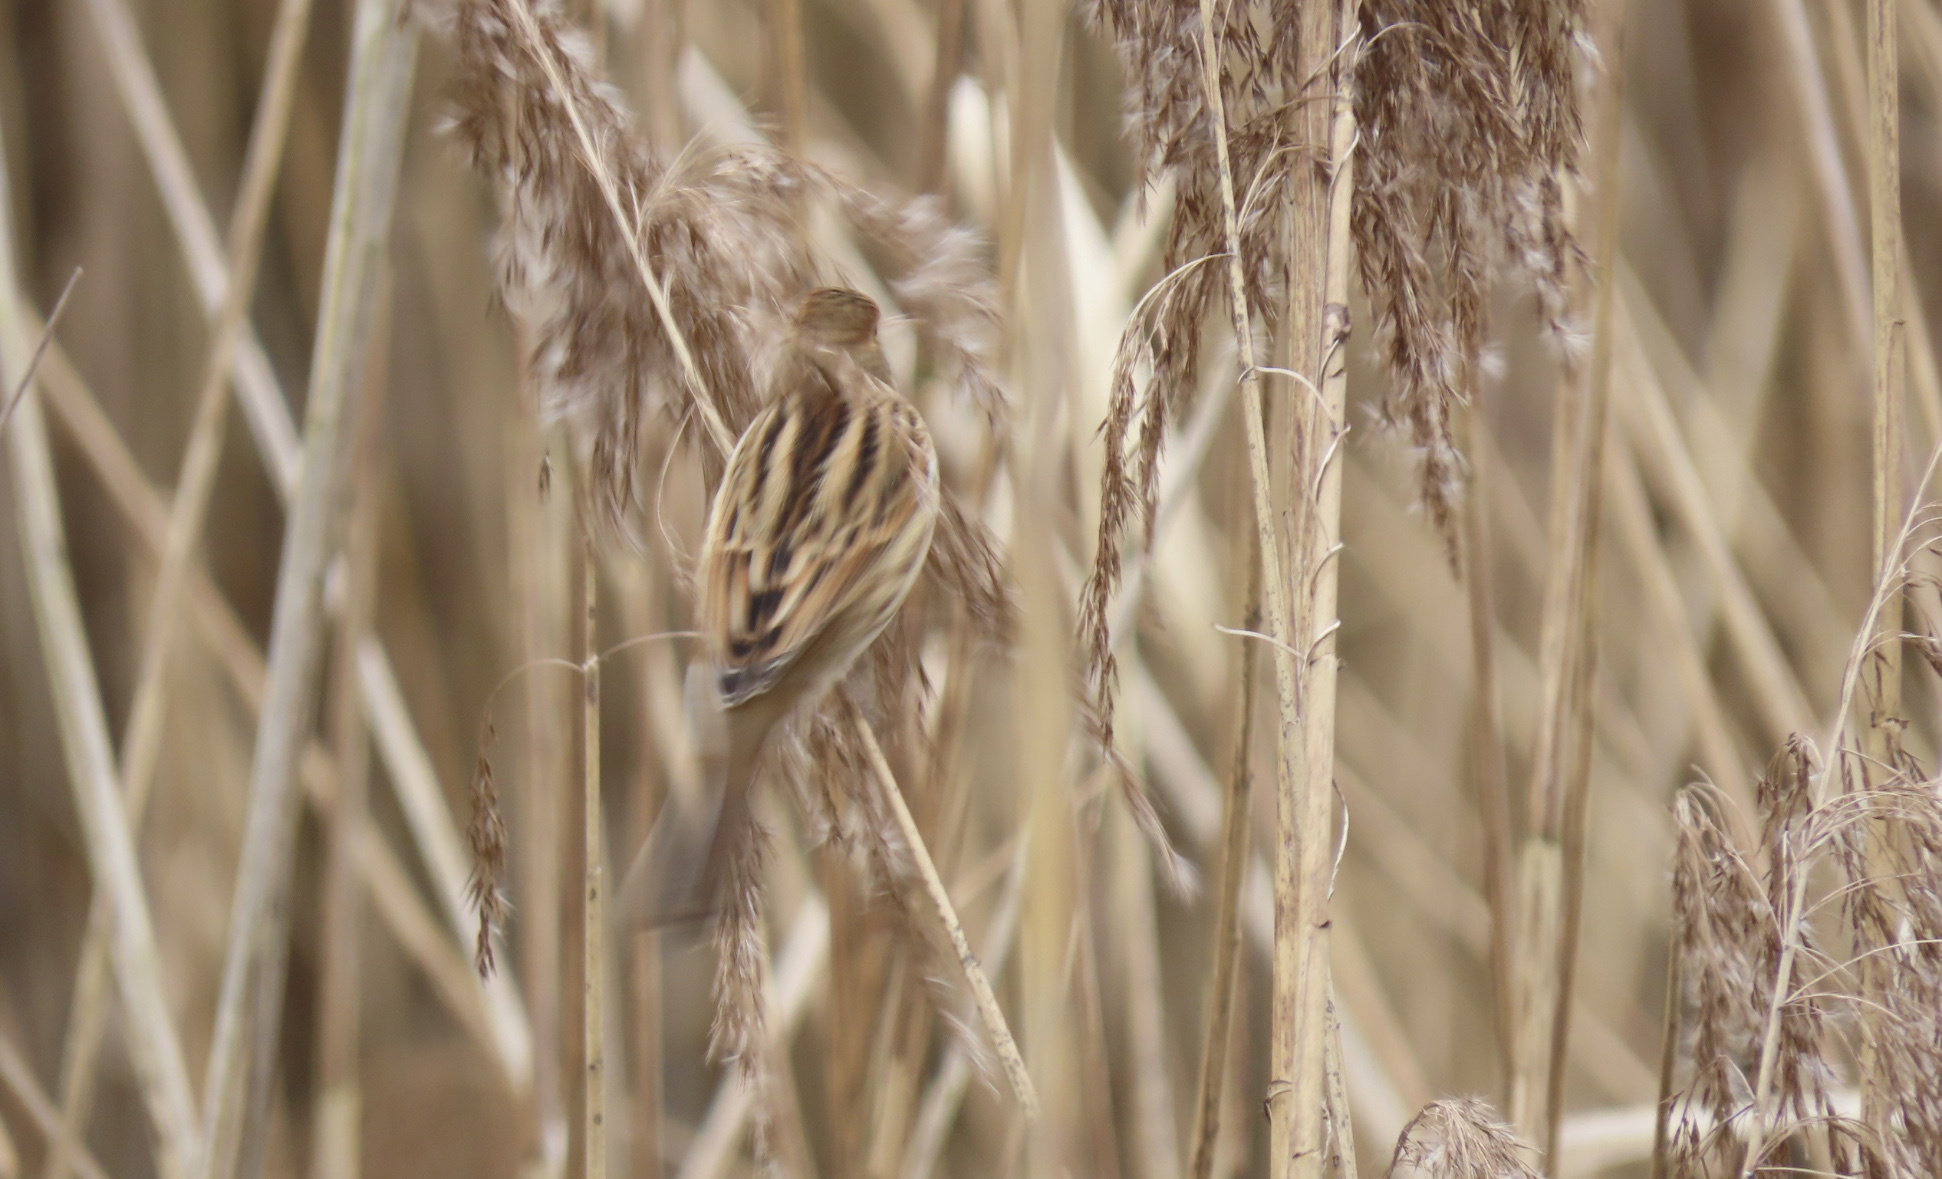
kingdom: Animalia
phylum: Chordata
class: Aves
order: Passeriformes
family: Emberizidae
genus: Emberiza
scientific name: Emberiza schoeniclus
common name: Reed bunting
